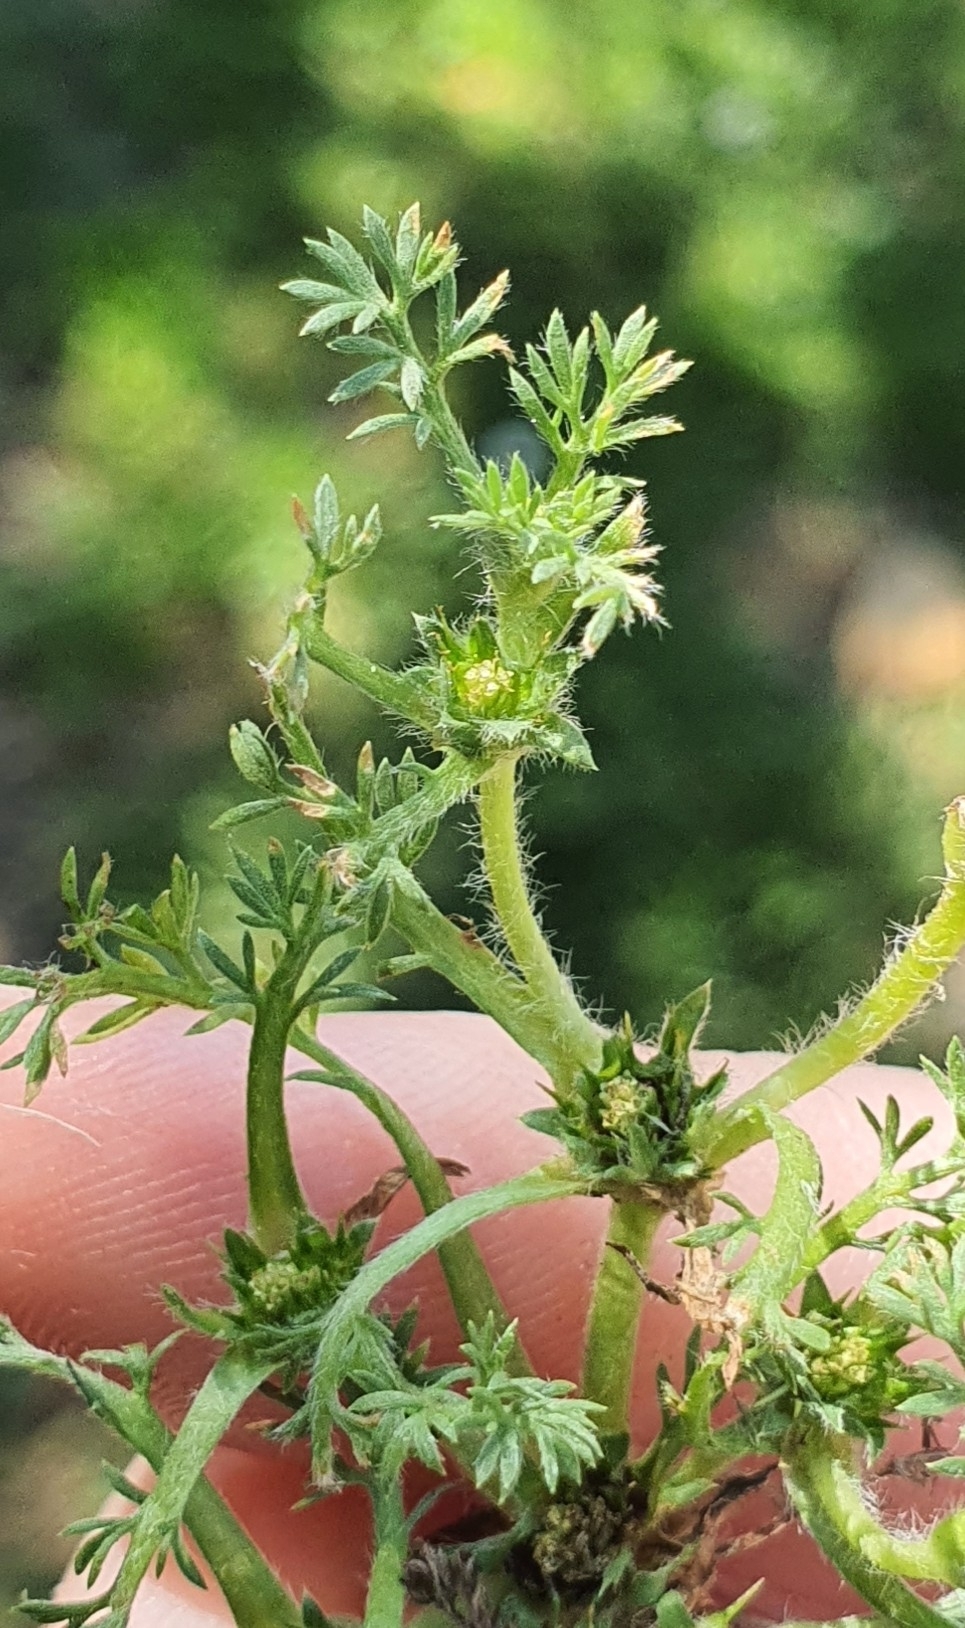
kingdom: Plantae
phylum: Tracheophyta
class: Magnoliopsida
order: Asterales
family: Asteraceae
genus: Soliva
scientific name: Soliva sessilis
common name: Field burrweed
